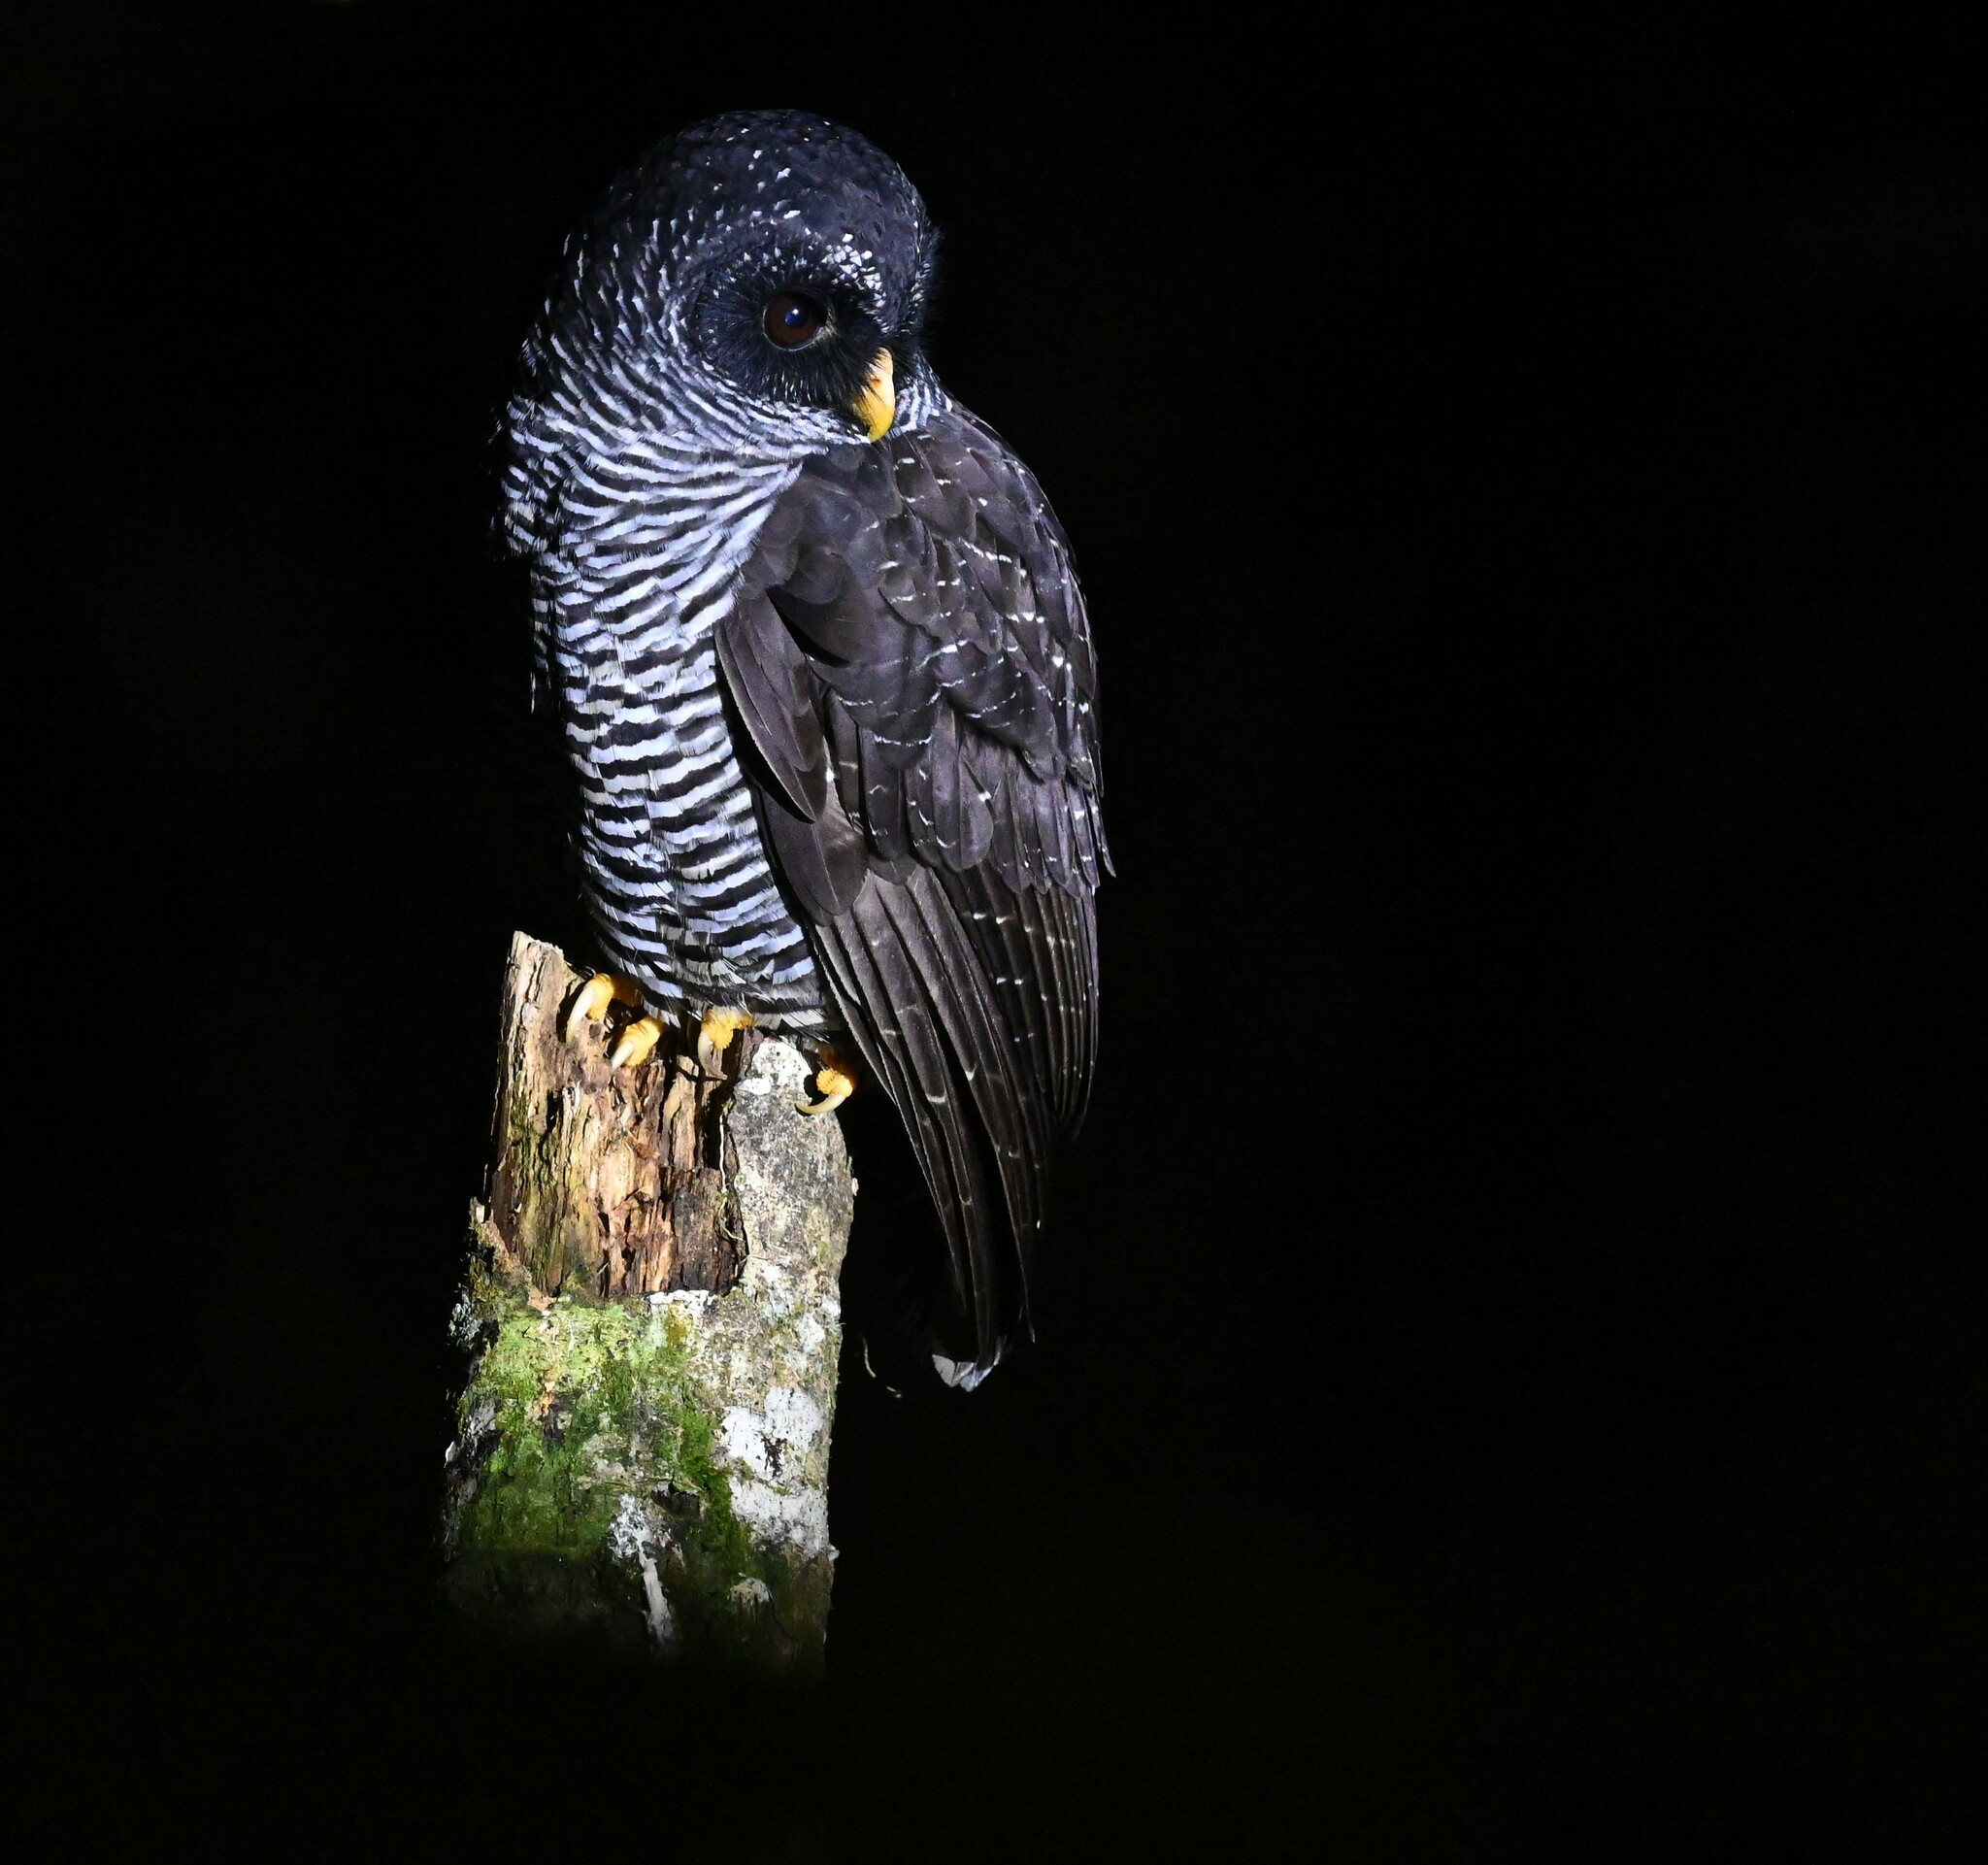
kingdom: Animalia
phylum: Chordata
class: Aves
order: Strigiformes
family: Strigidae
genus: Strix
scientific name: Strix huhula
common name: Black-banded owl
